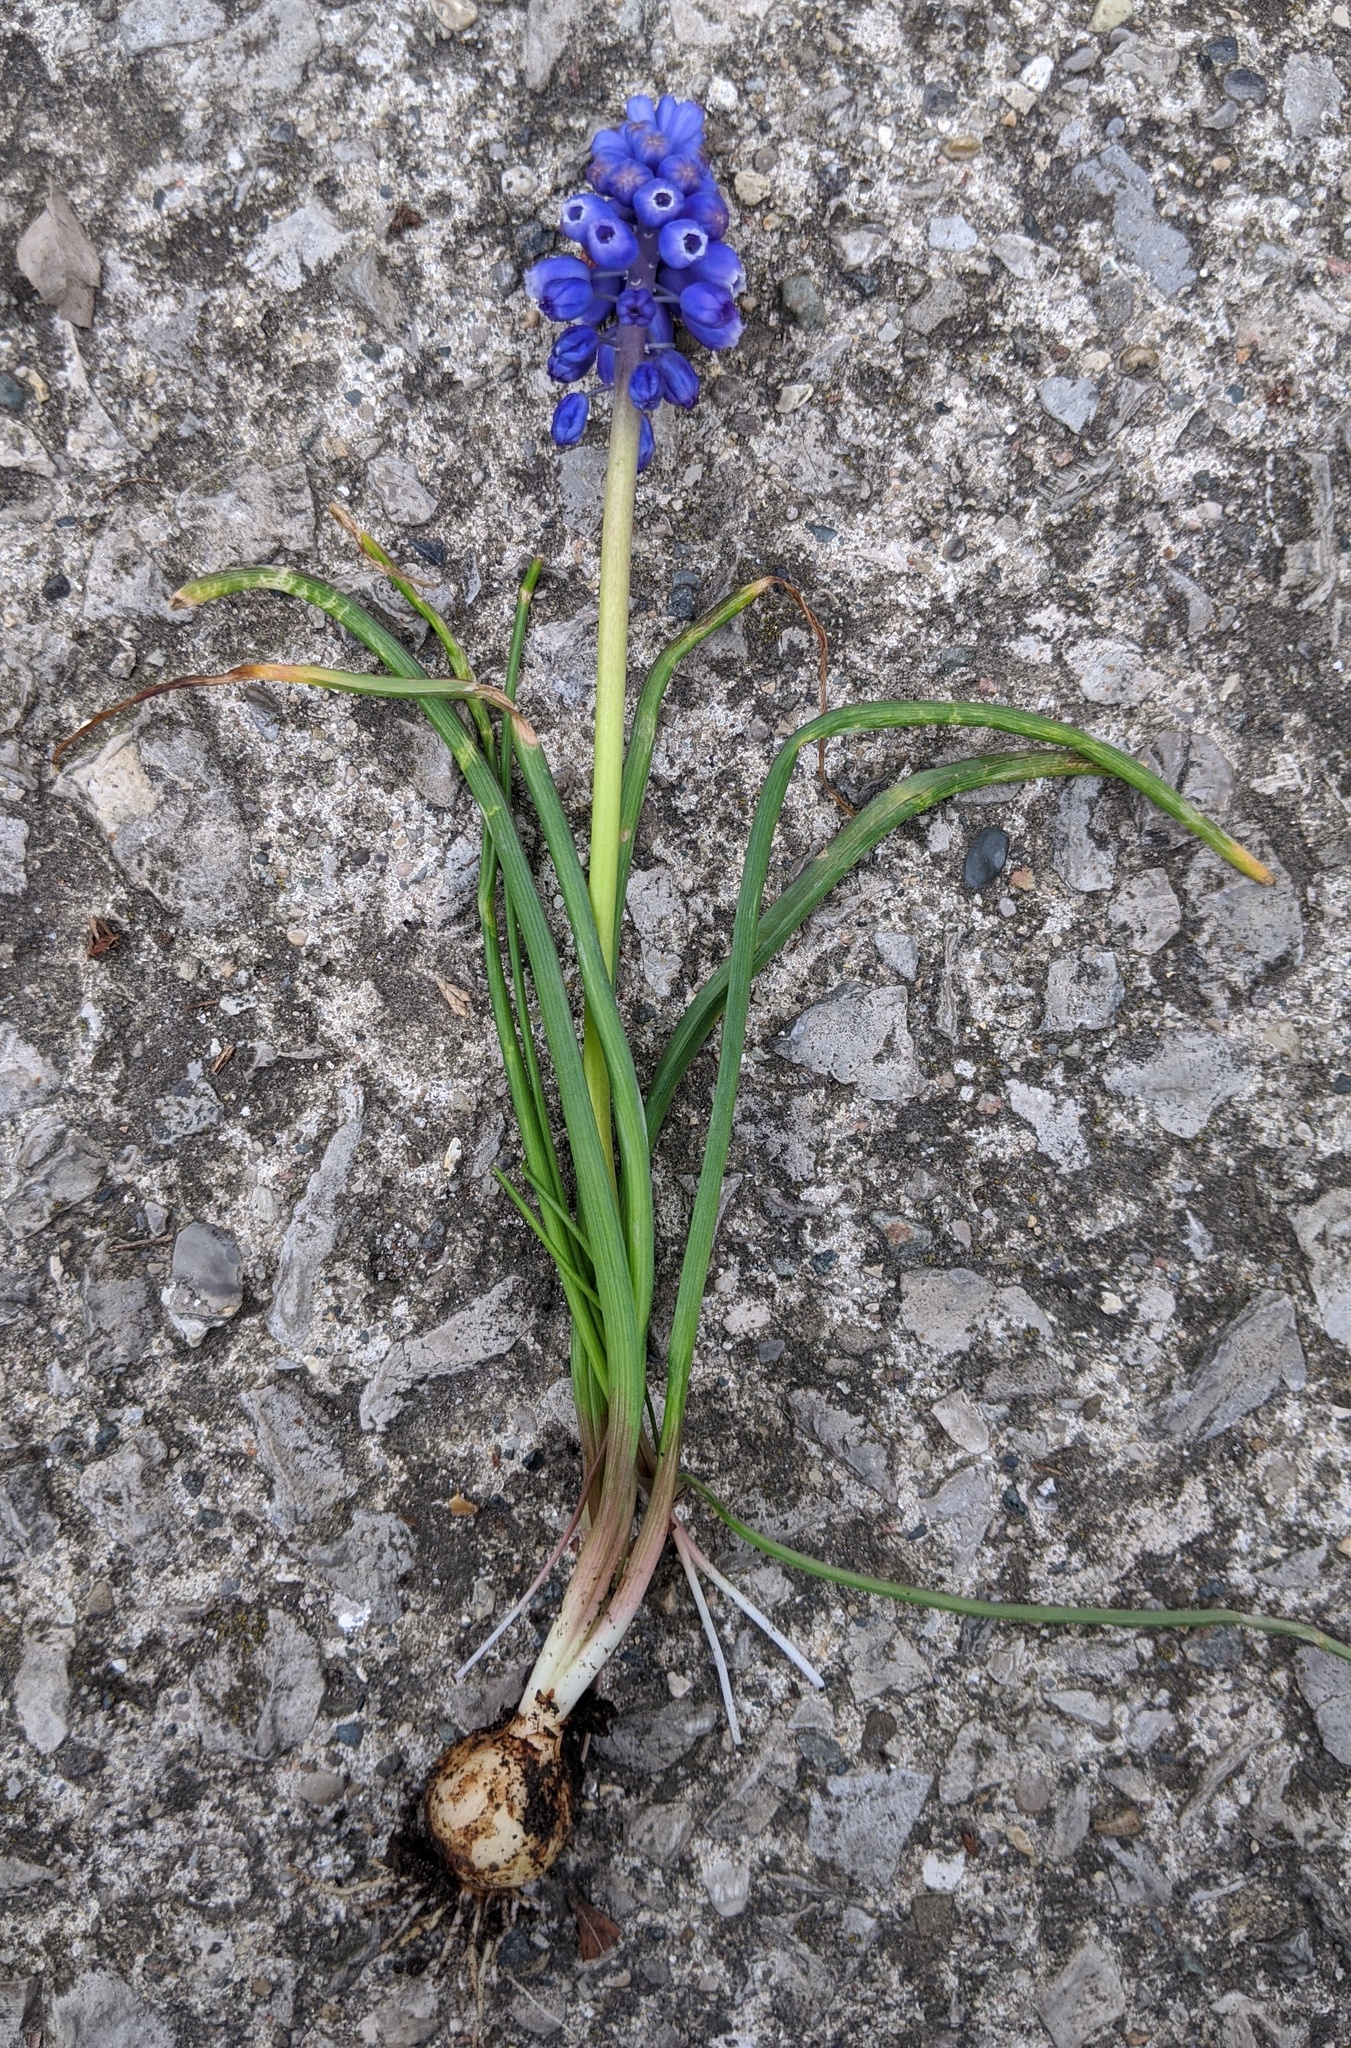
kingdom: Plantae
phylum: Tracheophyta
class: Liliopsida
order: Asparagales
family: Asparagaceae
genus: Muscari
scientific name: Muscari neglectum
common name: Grape-hyacinth
